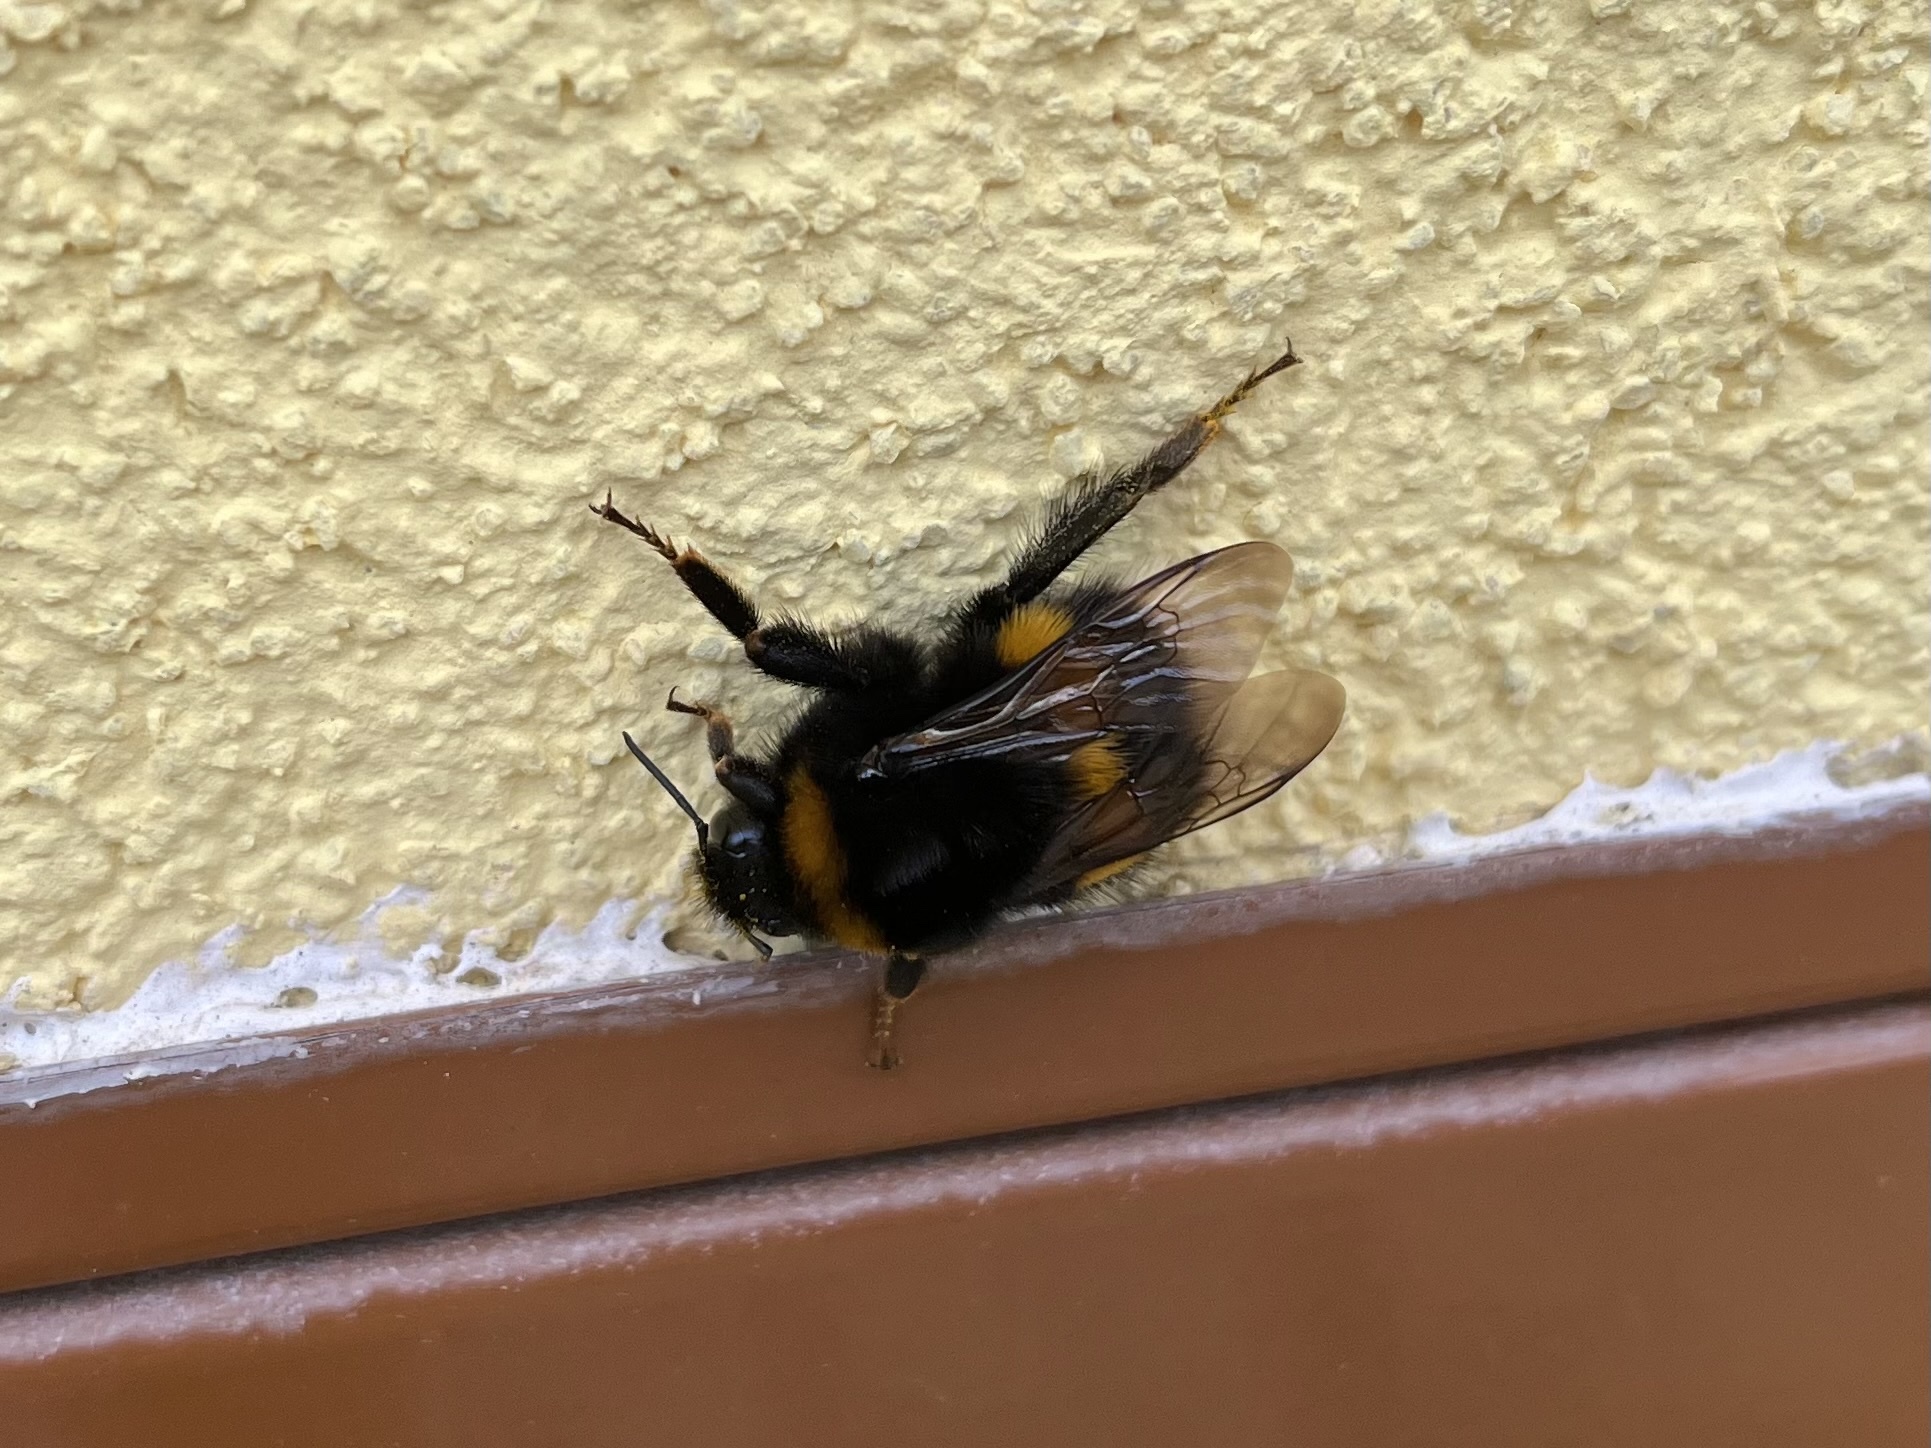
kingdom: Animalia
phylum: Arthropoda
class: Insecta
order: Hymenoptera
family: Apidae
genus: Bombus
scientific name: Bombus terrestris
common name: Buff-tailed bumblebee
